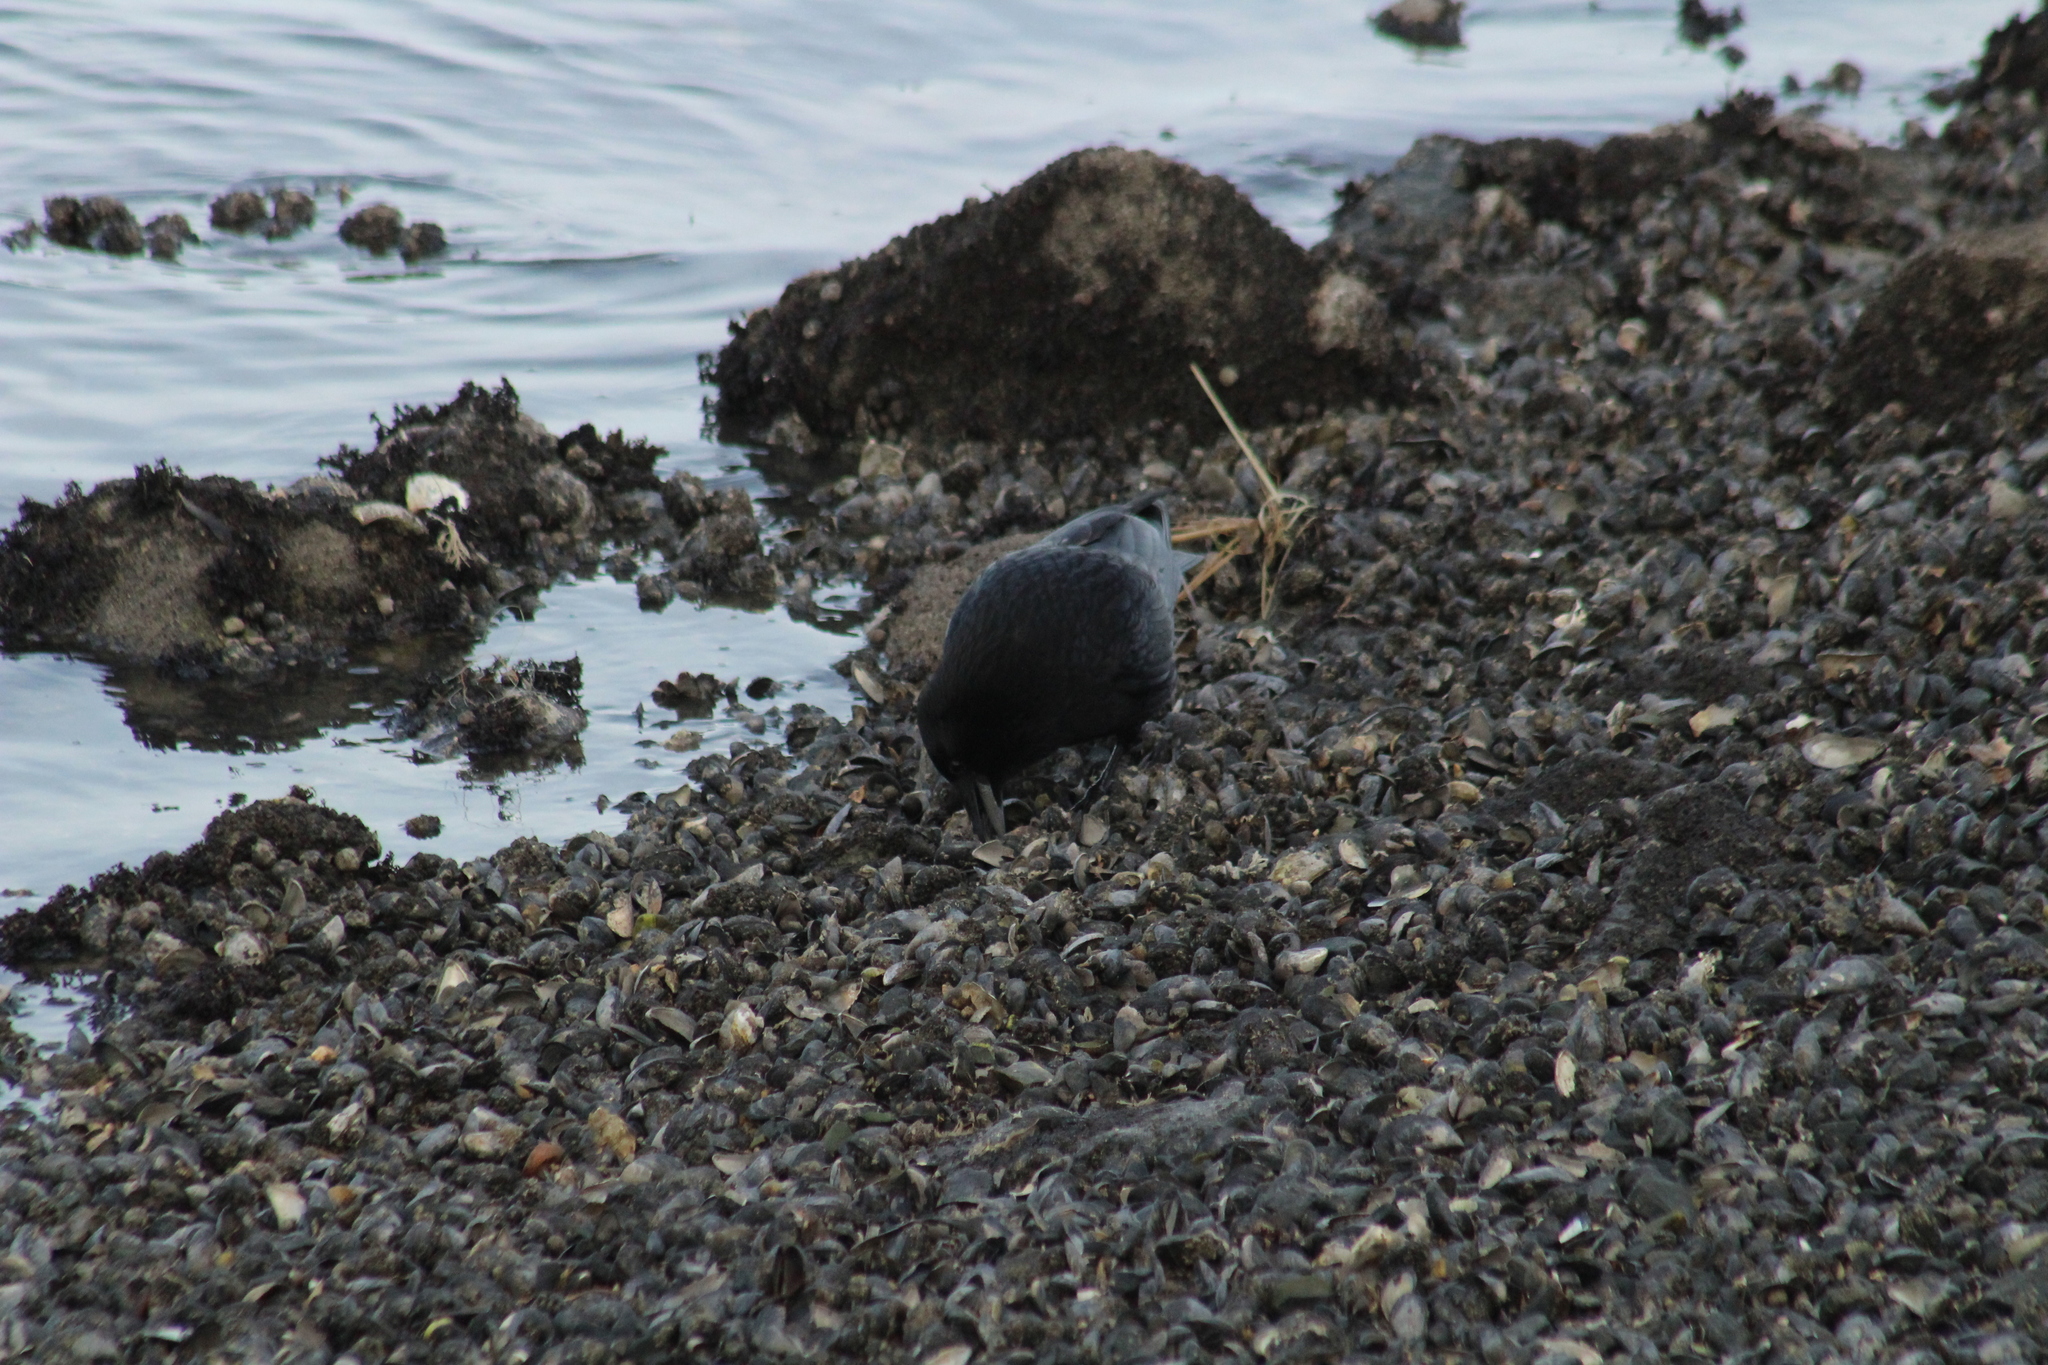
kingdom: Animalia
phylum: Chordata
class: Aves
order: Passeriformes
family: Corvidae
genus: Corvus
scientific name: Corvus corone
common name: Carrion crow
